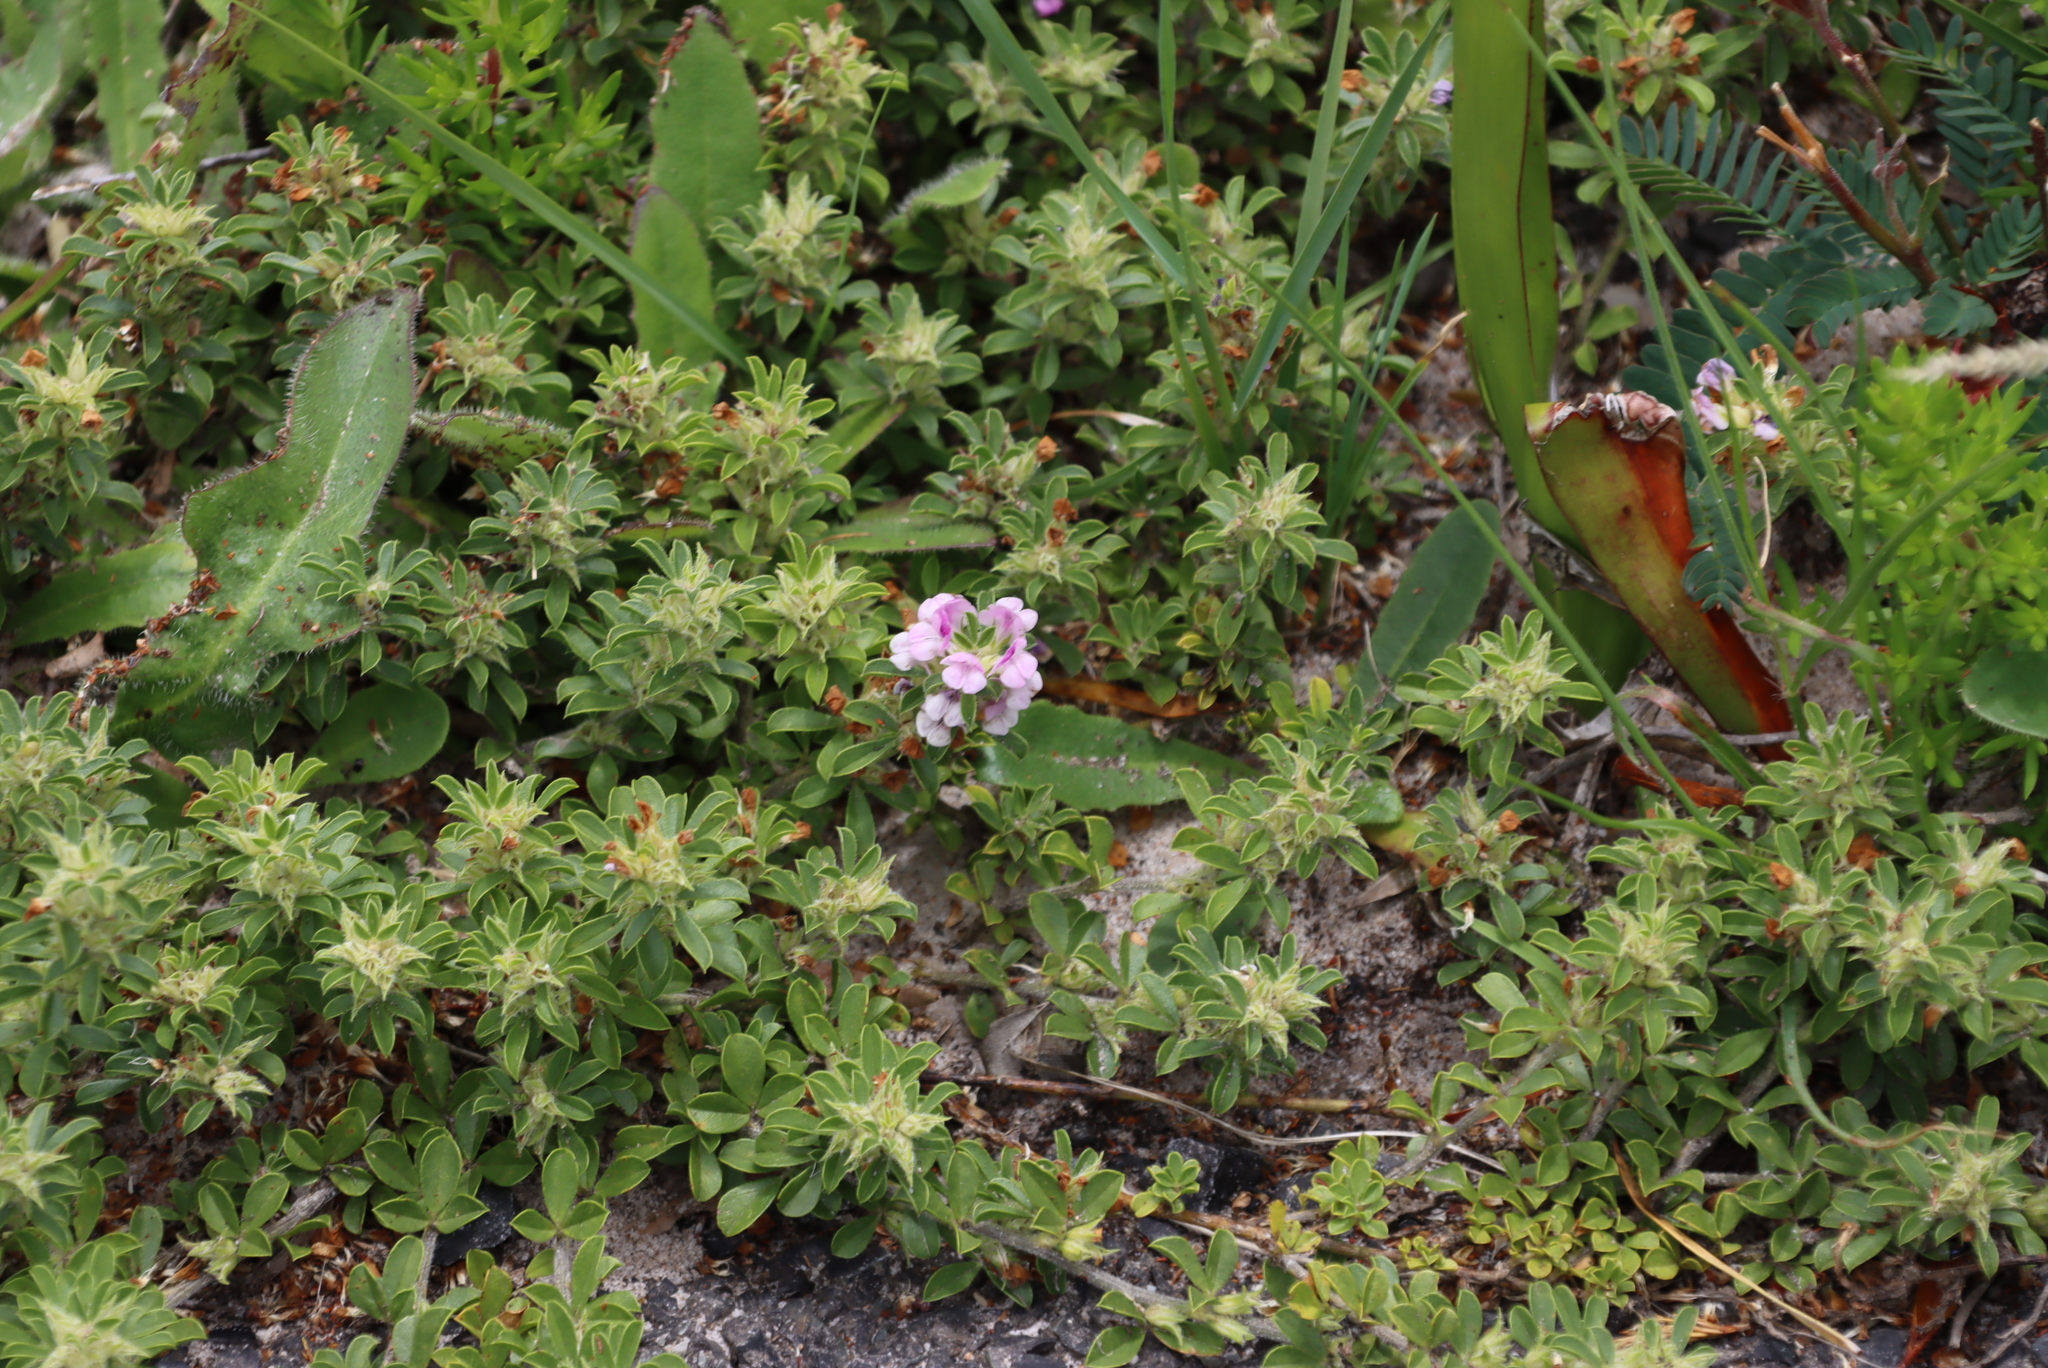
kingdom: Plantae
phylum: Tracheophyta
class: Magnoliopsida
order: Fabales
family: Fabaceae
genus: Psoralea
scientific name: Psoralea
